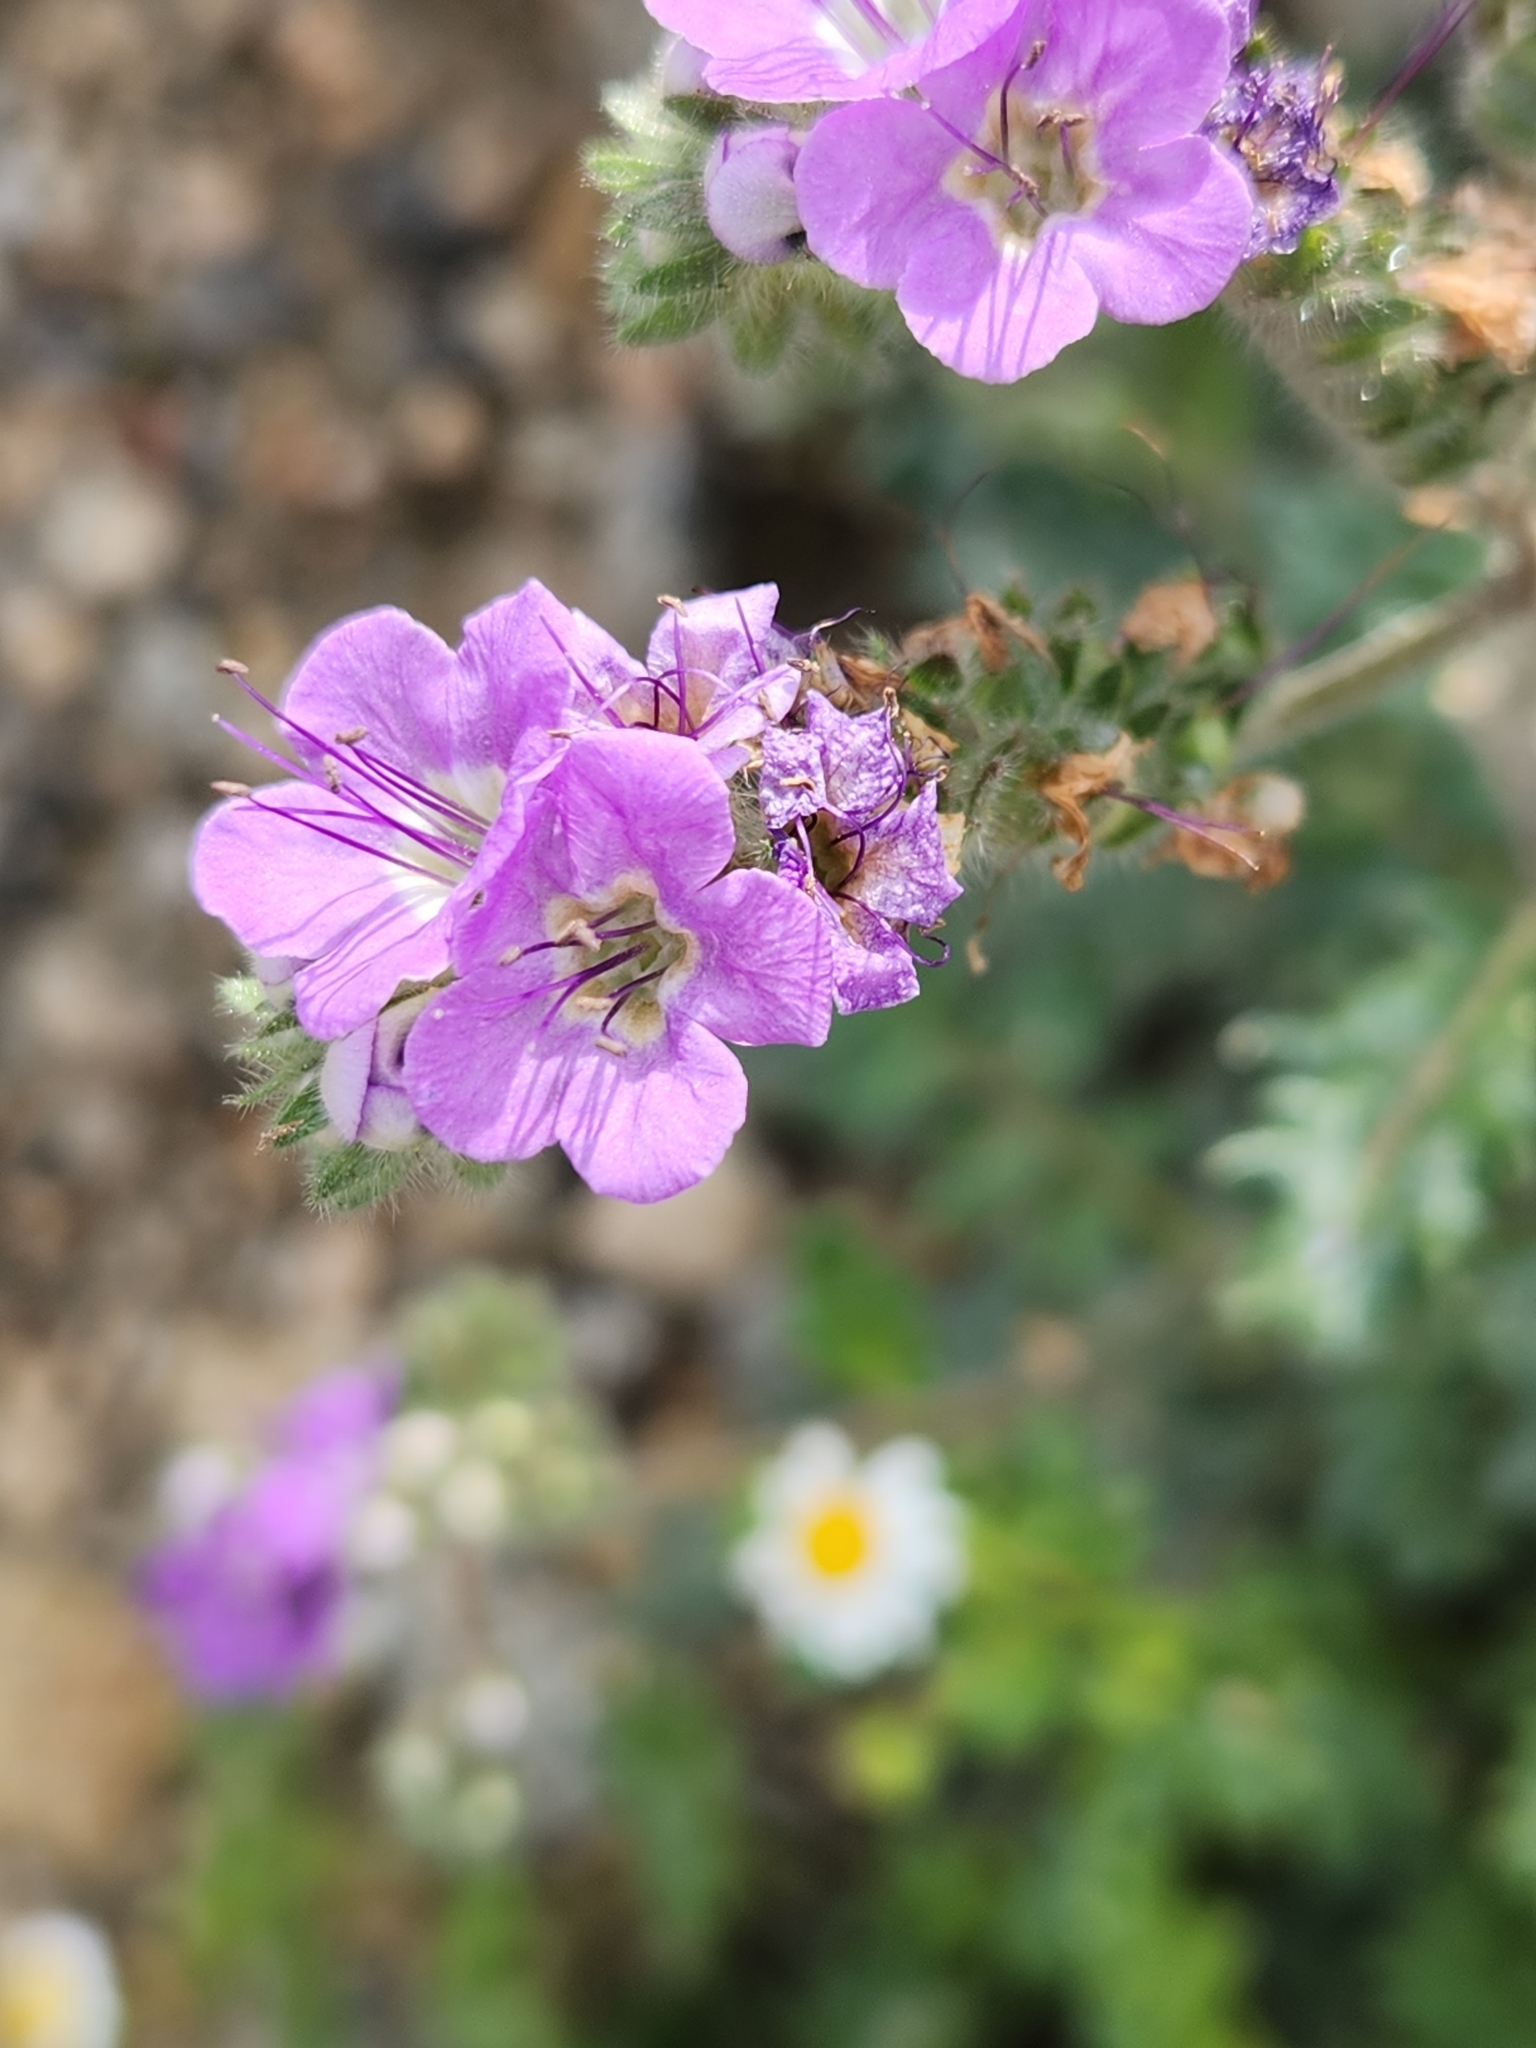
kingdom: Plantae
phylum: Tracheophyta
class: Magnoliopsida
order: Boraginales
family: Hydrophyllaceae
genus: Phacelia
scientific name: Phacelia crenulata
